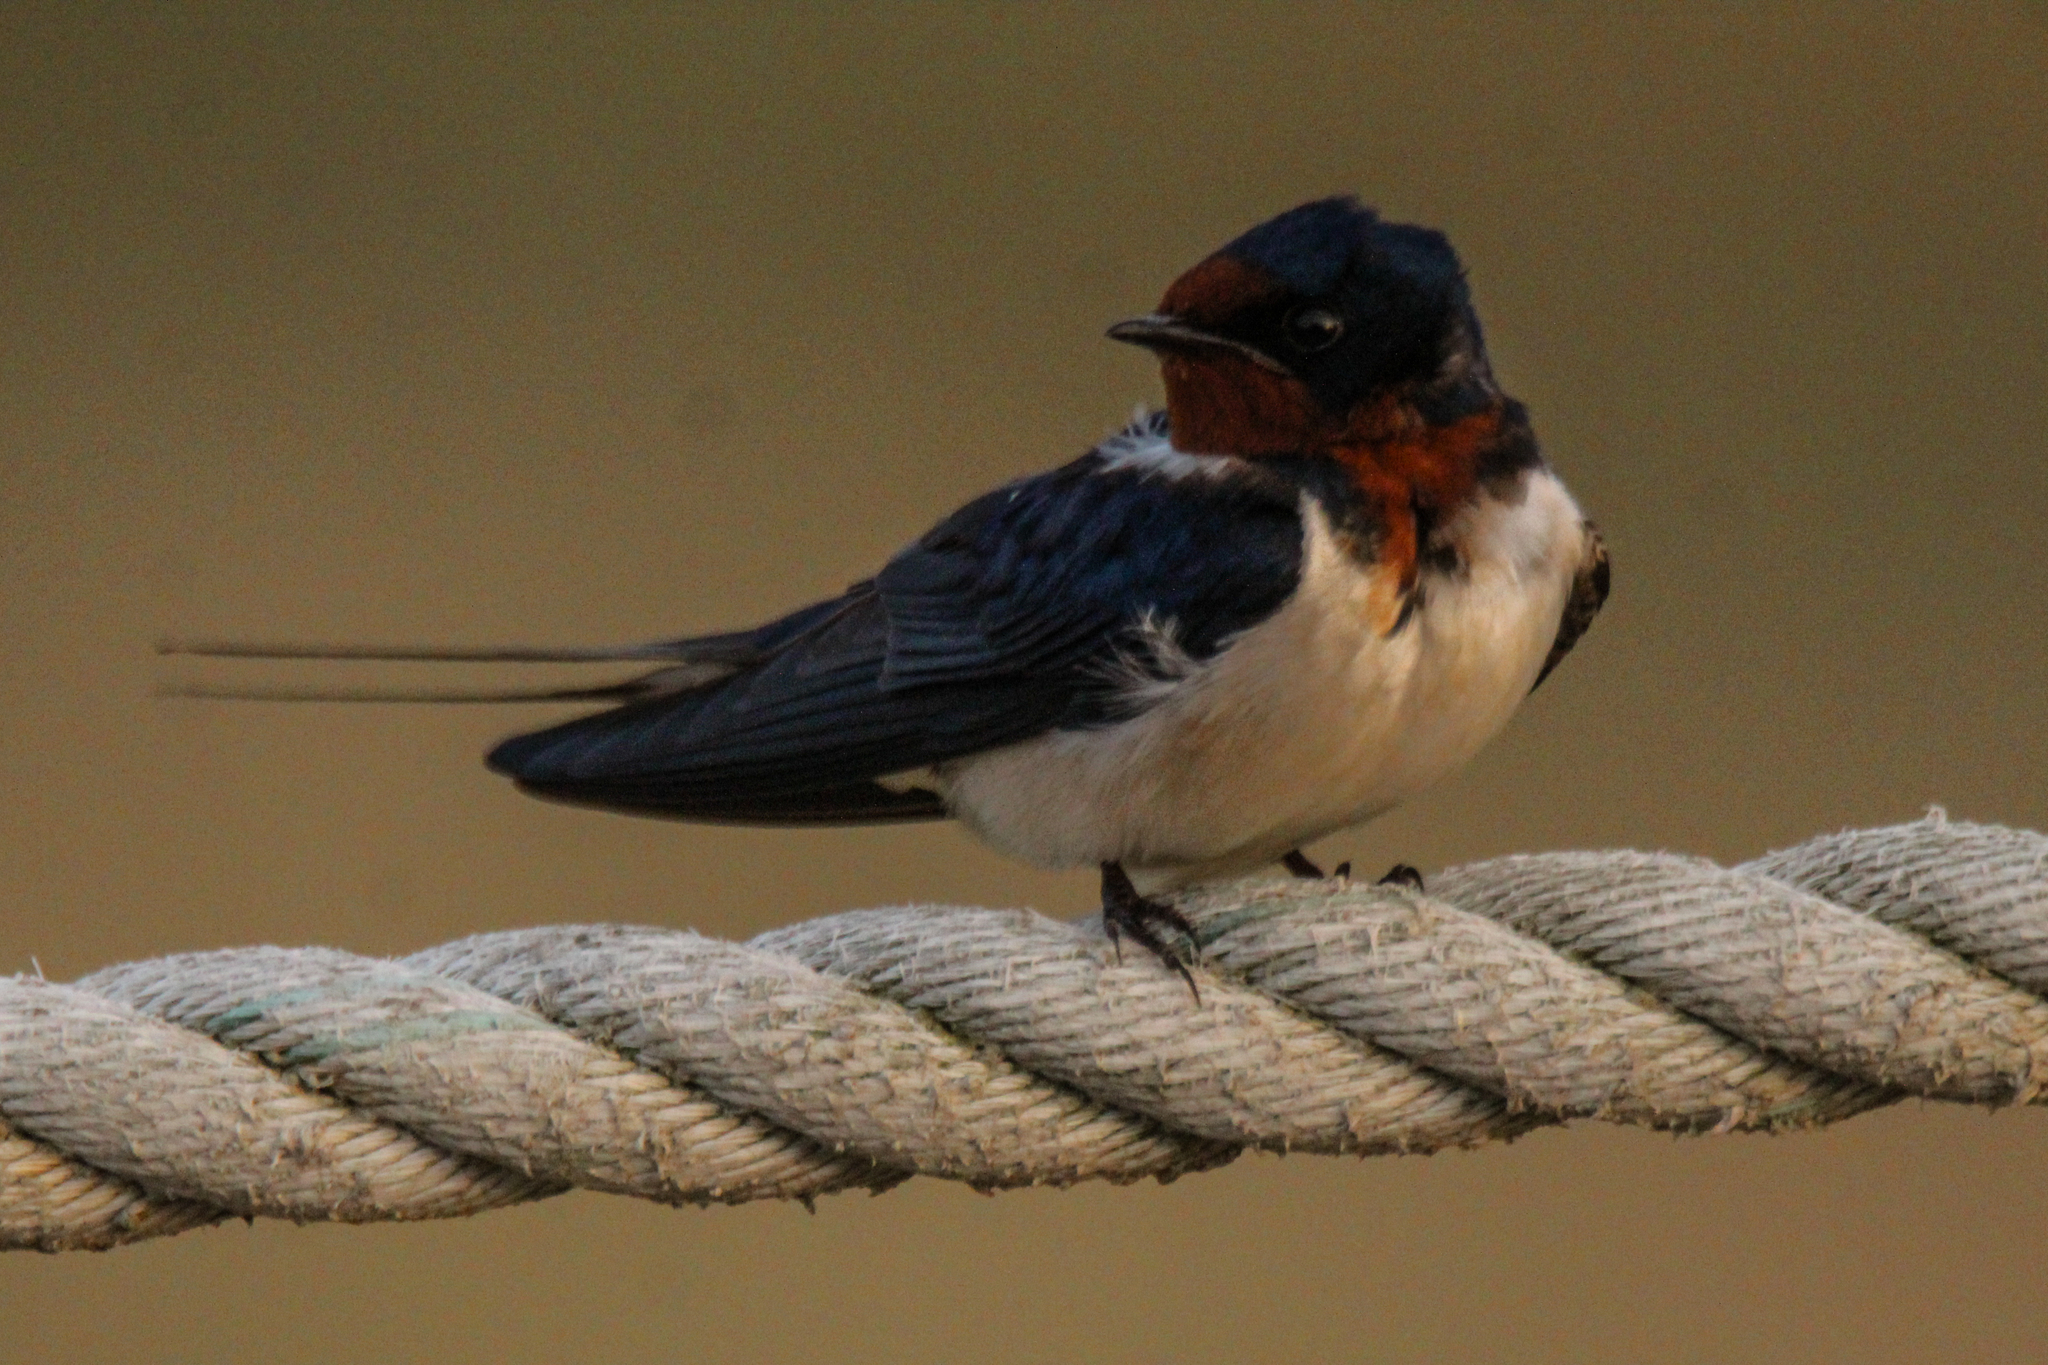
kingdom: Animalia
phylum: Chordata
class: Aves
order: Passeriformes
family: Hirundinidae
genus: Hirundo
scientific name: Hirundo rustica
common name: Barn swallow
